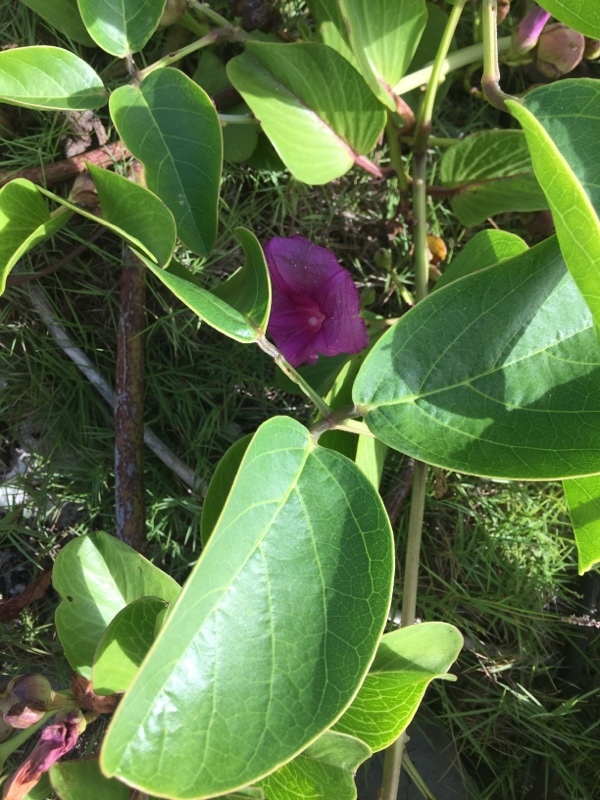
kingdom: Plantae
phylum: Tracheophyta
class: Magnoliopsida
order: Solanales
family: Convolvulaceae
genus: Ipomoea
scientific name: Ipomoea pes-caprae
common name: Beach morning glory
